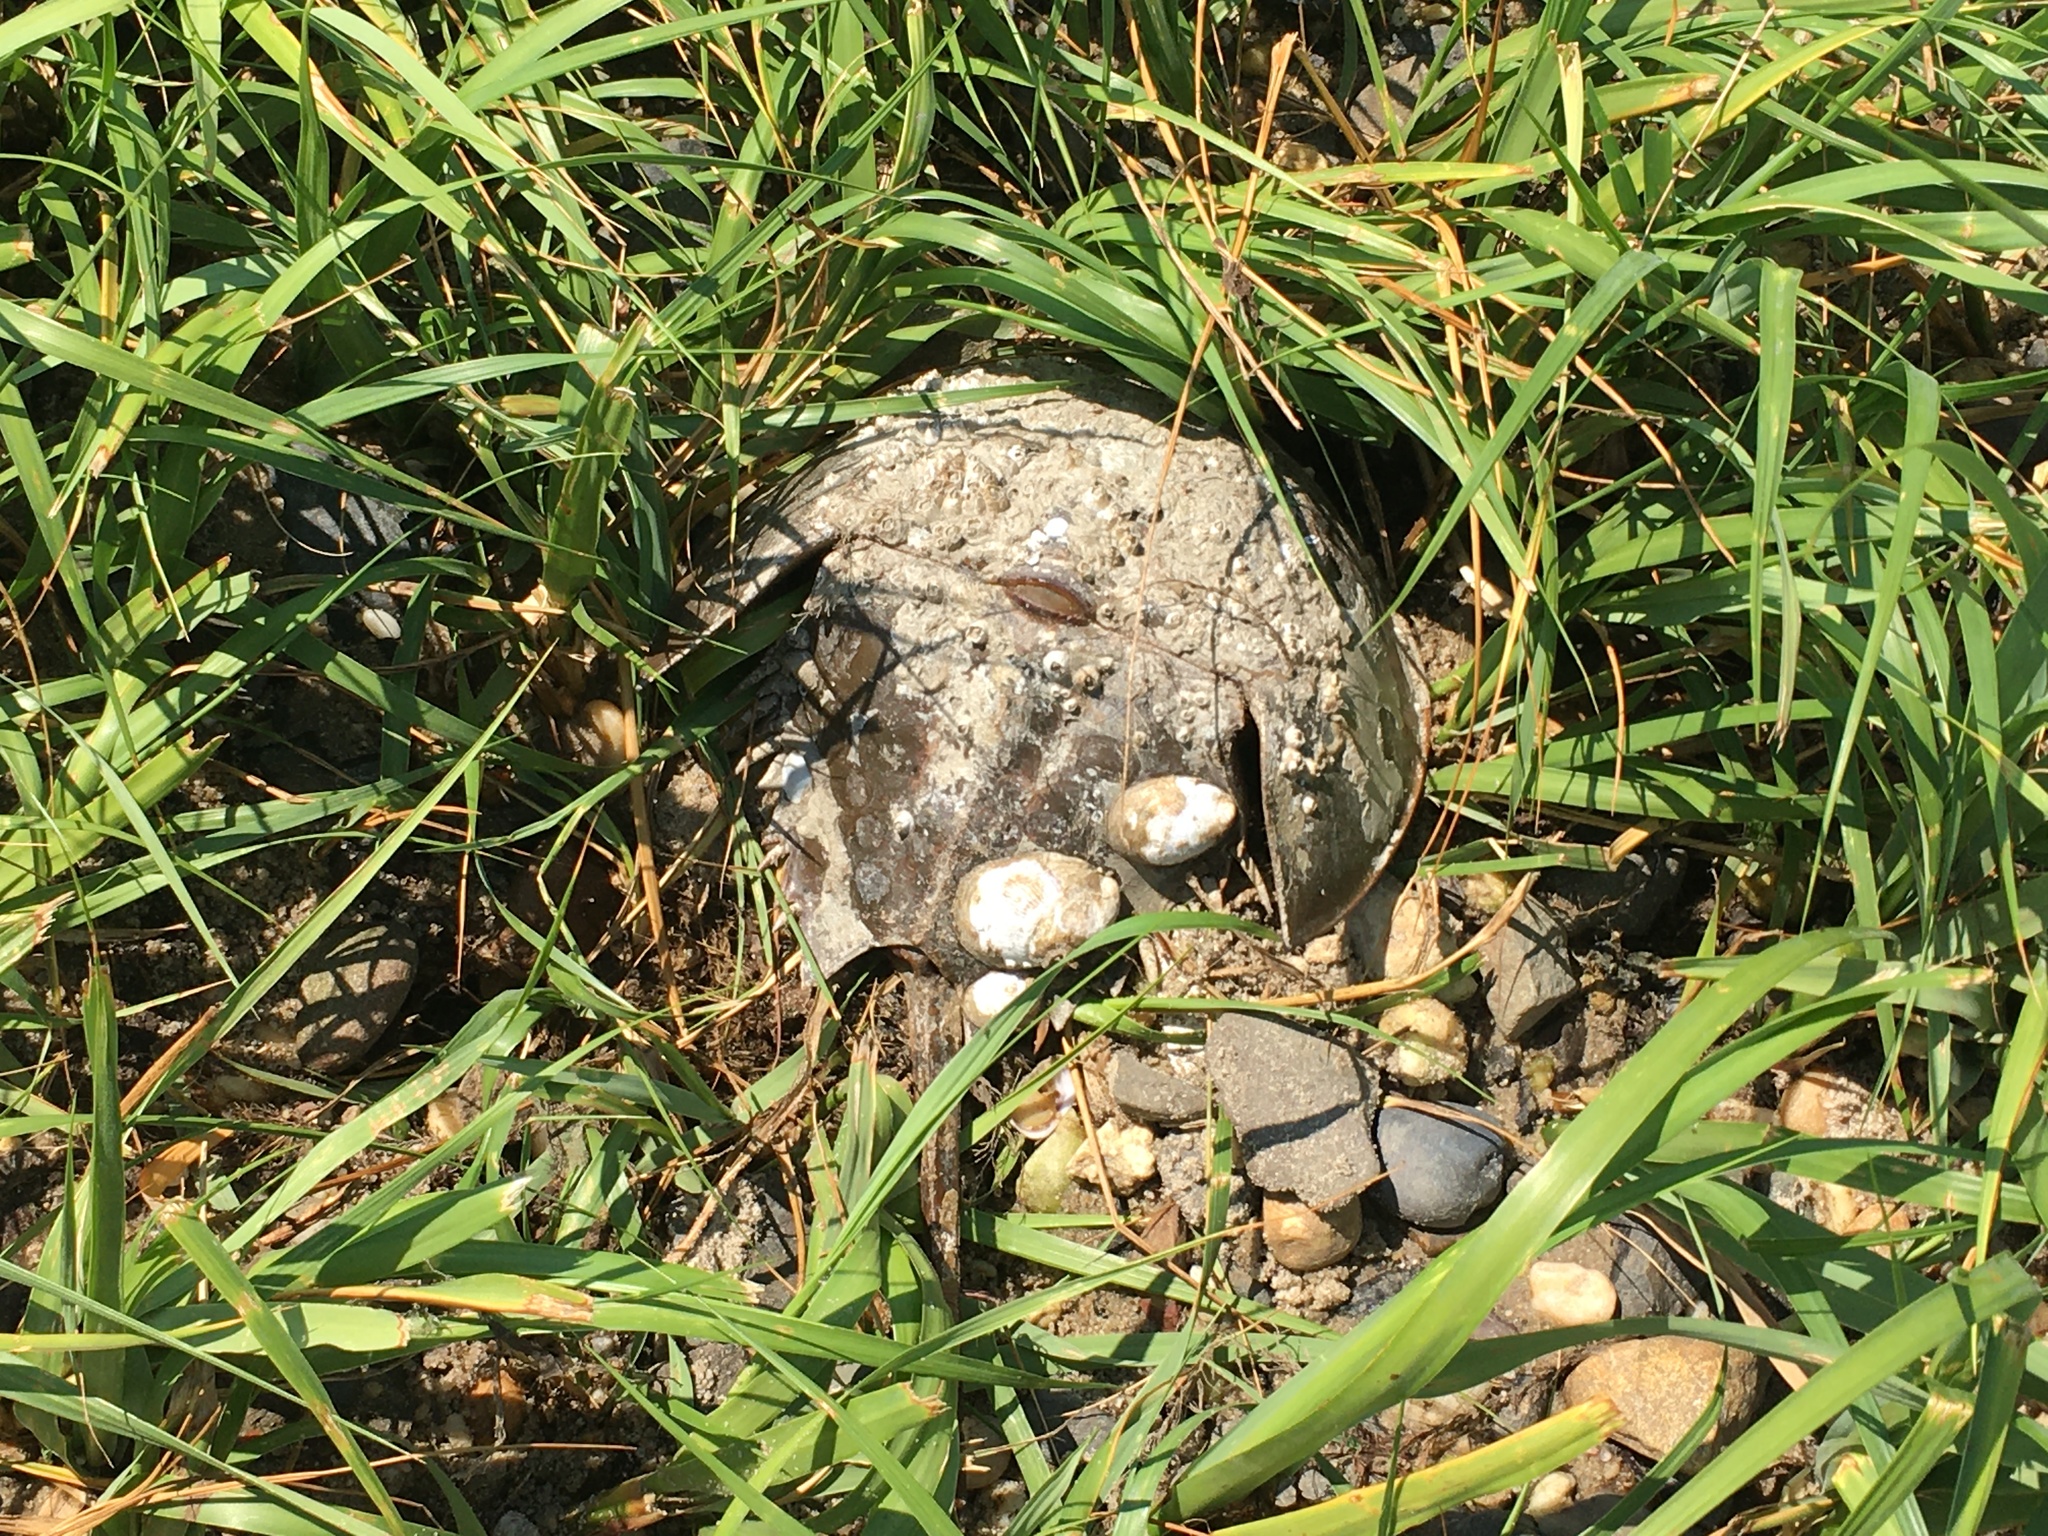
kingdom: Animalia
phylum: Arthropoda
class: Merostomata
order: Xiphosurida
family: Limulidae
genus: Limulus
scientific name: Limulus polyphemus
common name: Horseshoe crab
